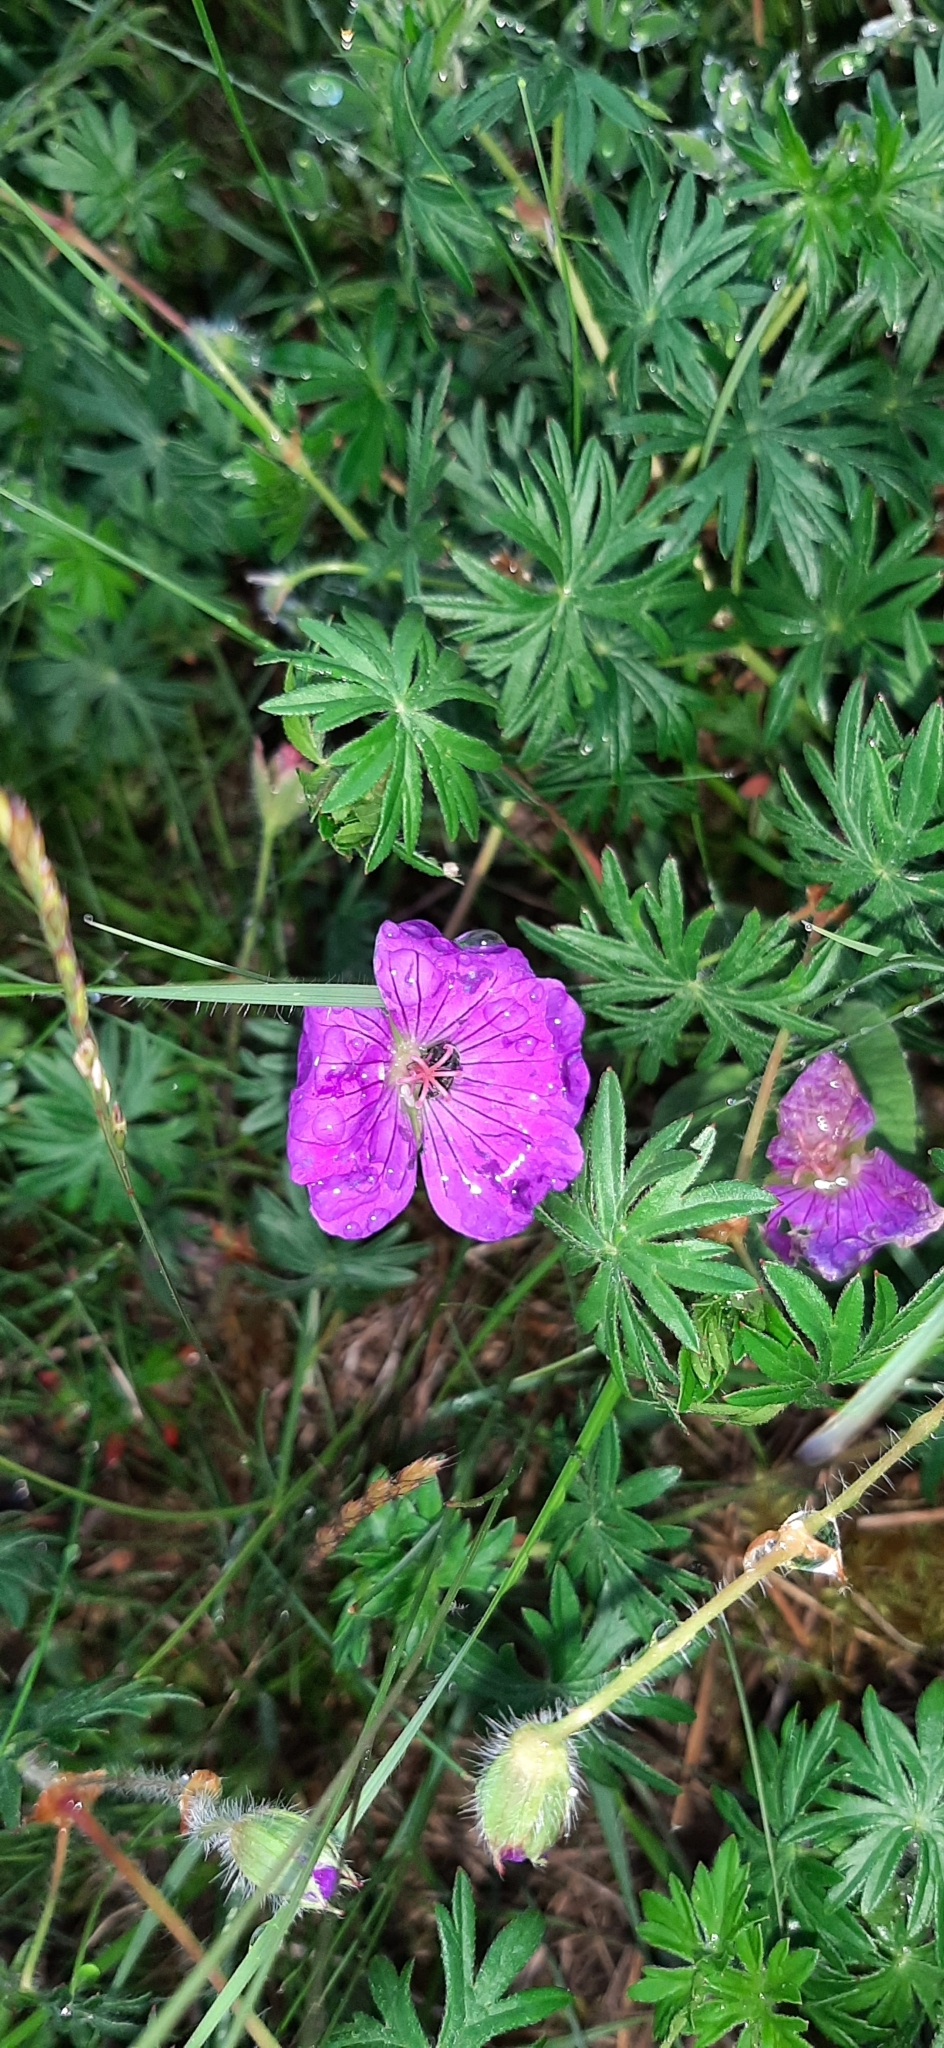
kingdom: Plantae
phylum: Tracheophyta
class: Magnoliopsida
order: Geraniales
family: Geraniaceae
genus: Geranium
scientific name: Geranium sanguineum
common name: Bloody crane's-bill
